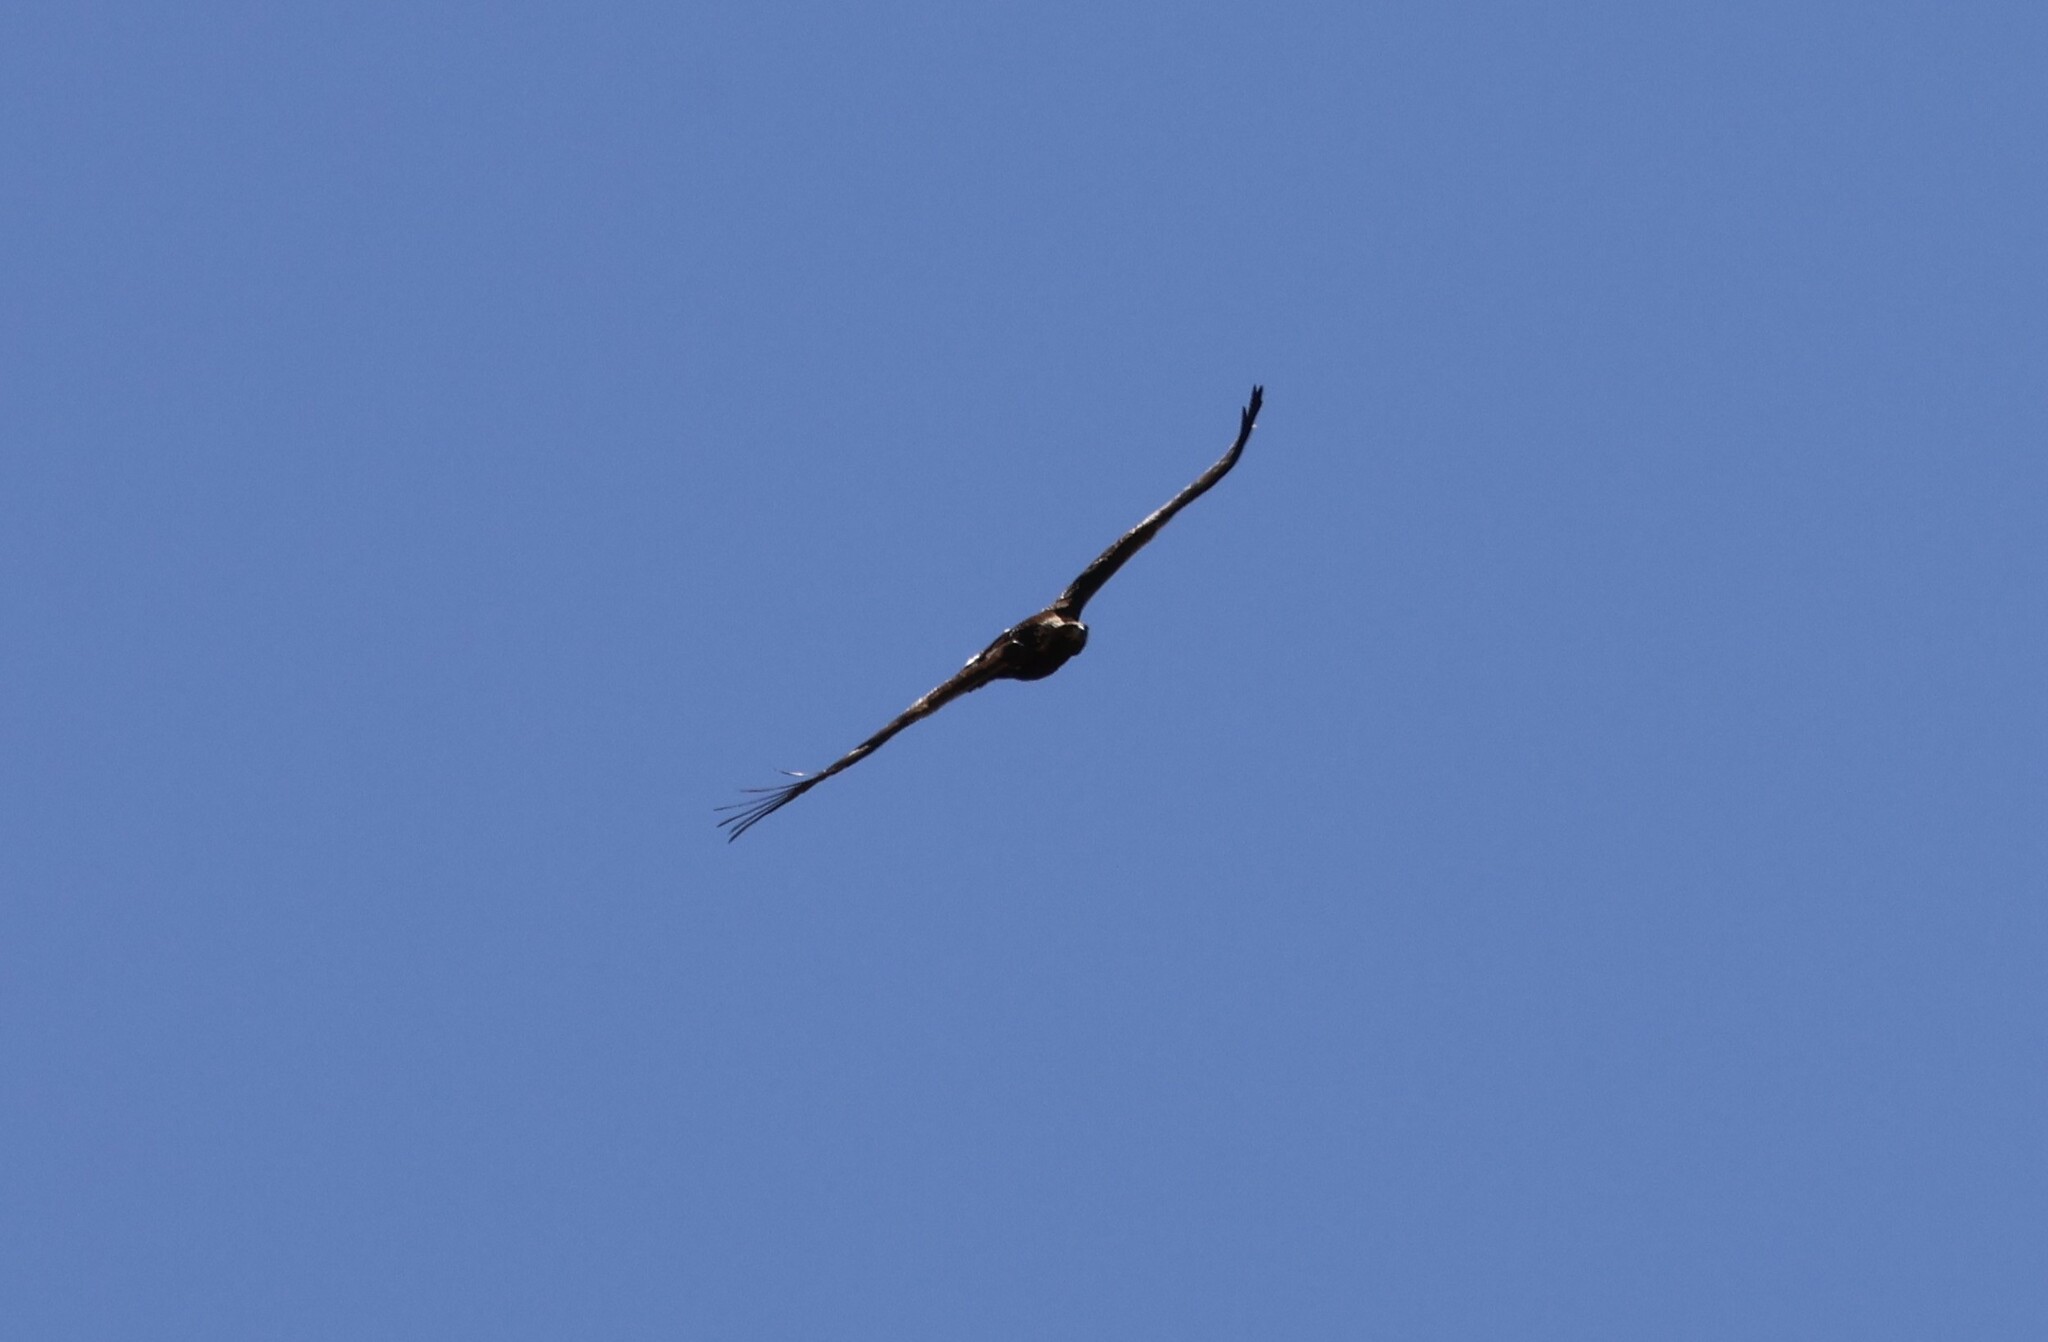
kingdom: Animalia
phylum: Chordata
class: Aves
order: Accipitriformes
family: Accipitridae
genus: Aquila
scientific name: Aquila chrysaetos
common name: Golden eagle
